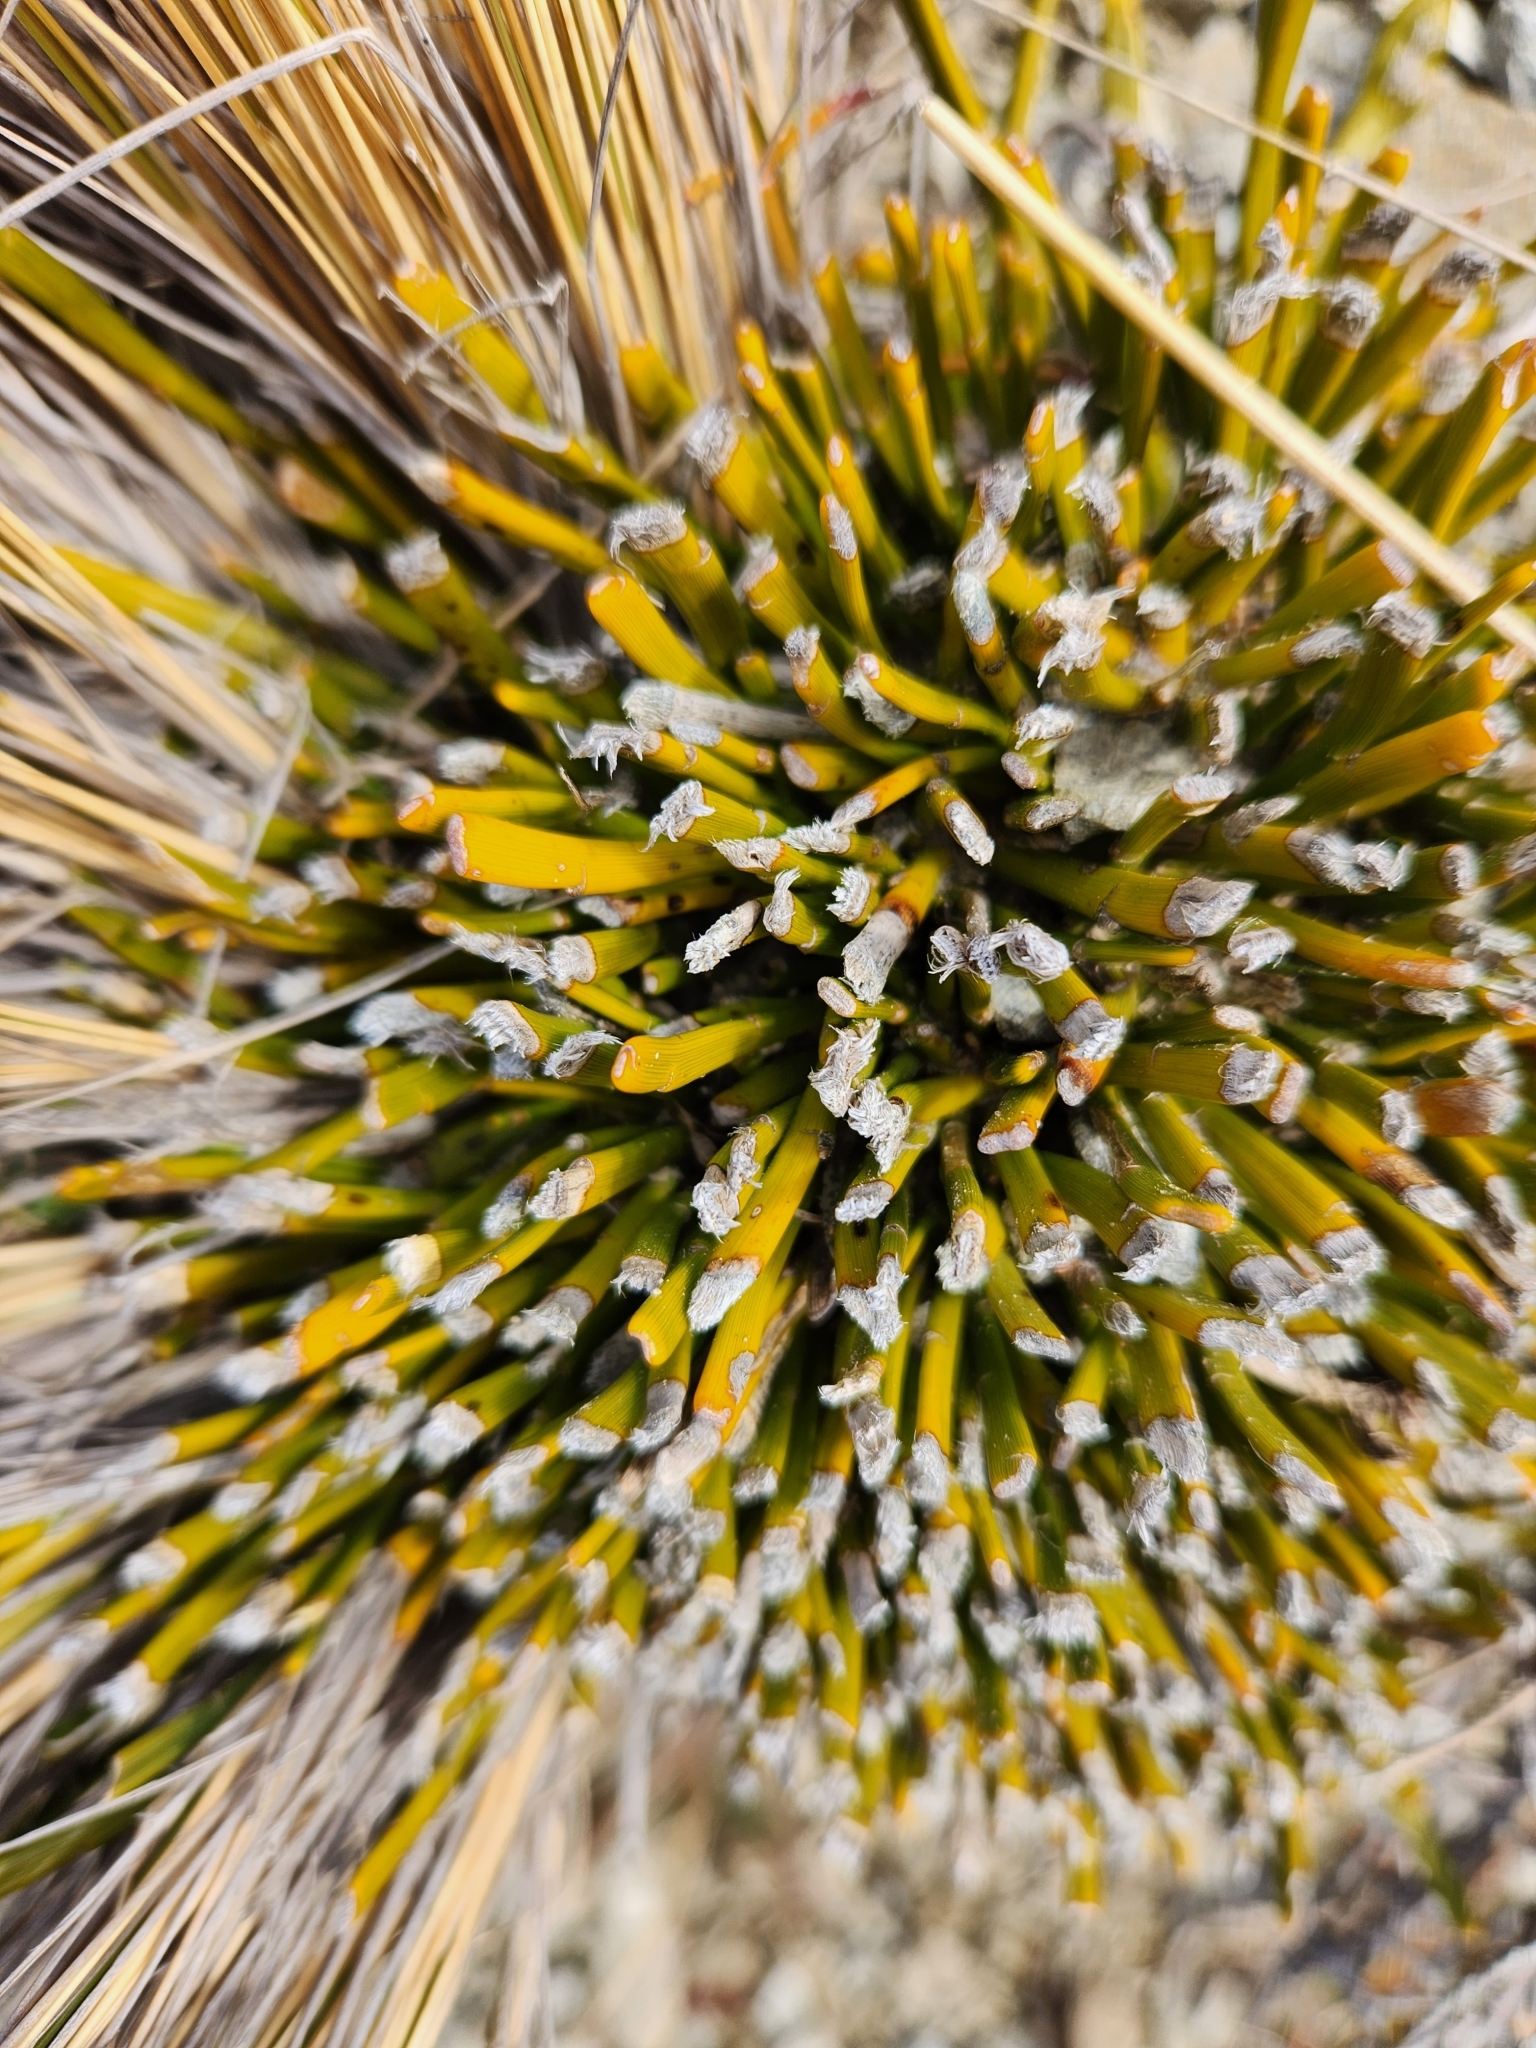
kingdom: Plantae
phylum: Tracheophyta
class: Magnoliopsida
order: Fabales
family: Fabaceae
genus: Carmichaelia
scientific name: Carmichaelia monroi
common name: Stout dwarf broom
